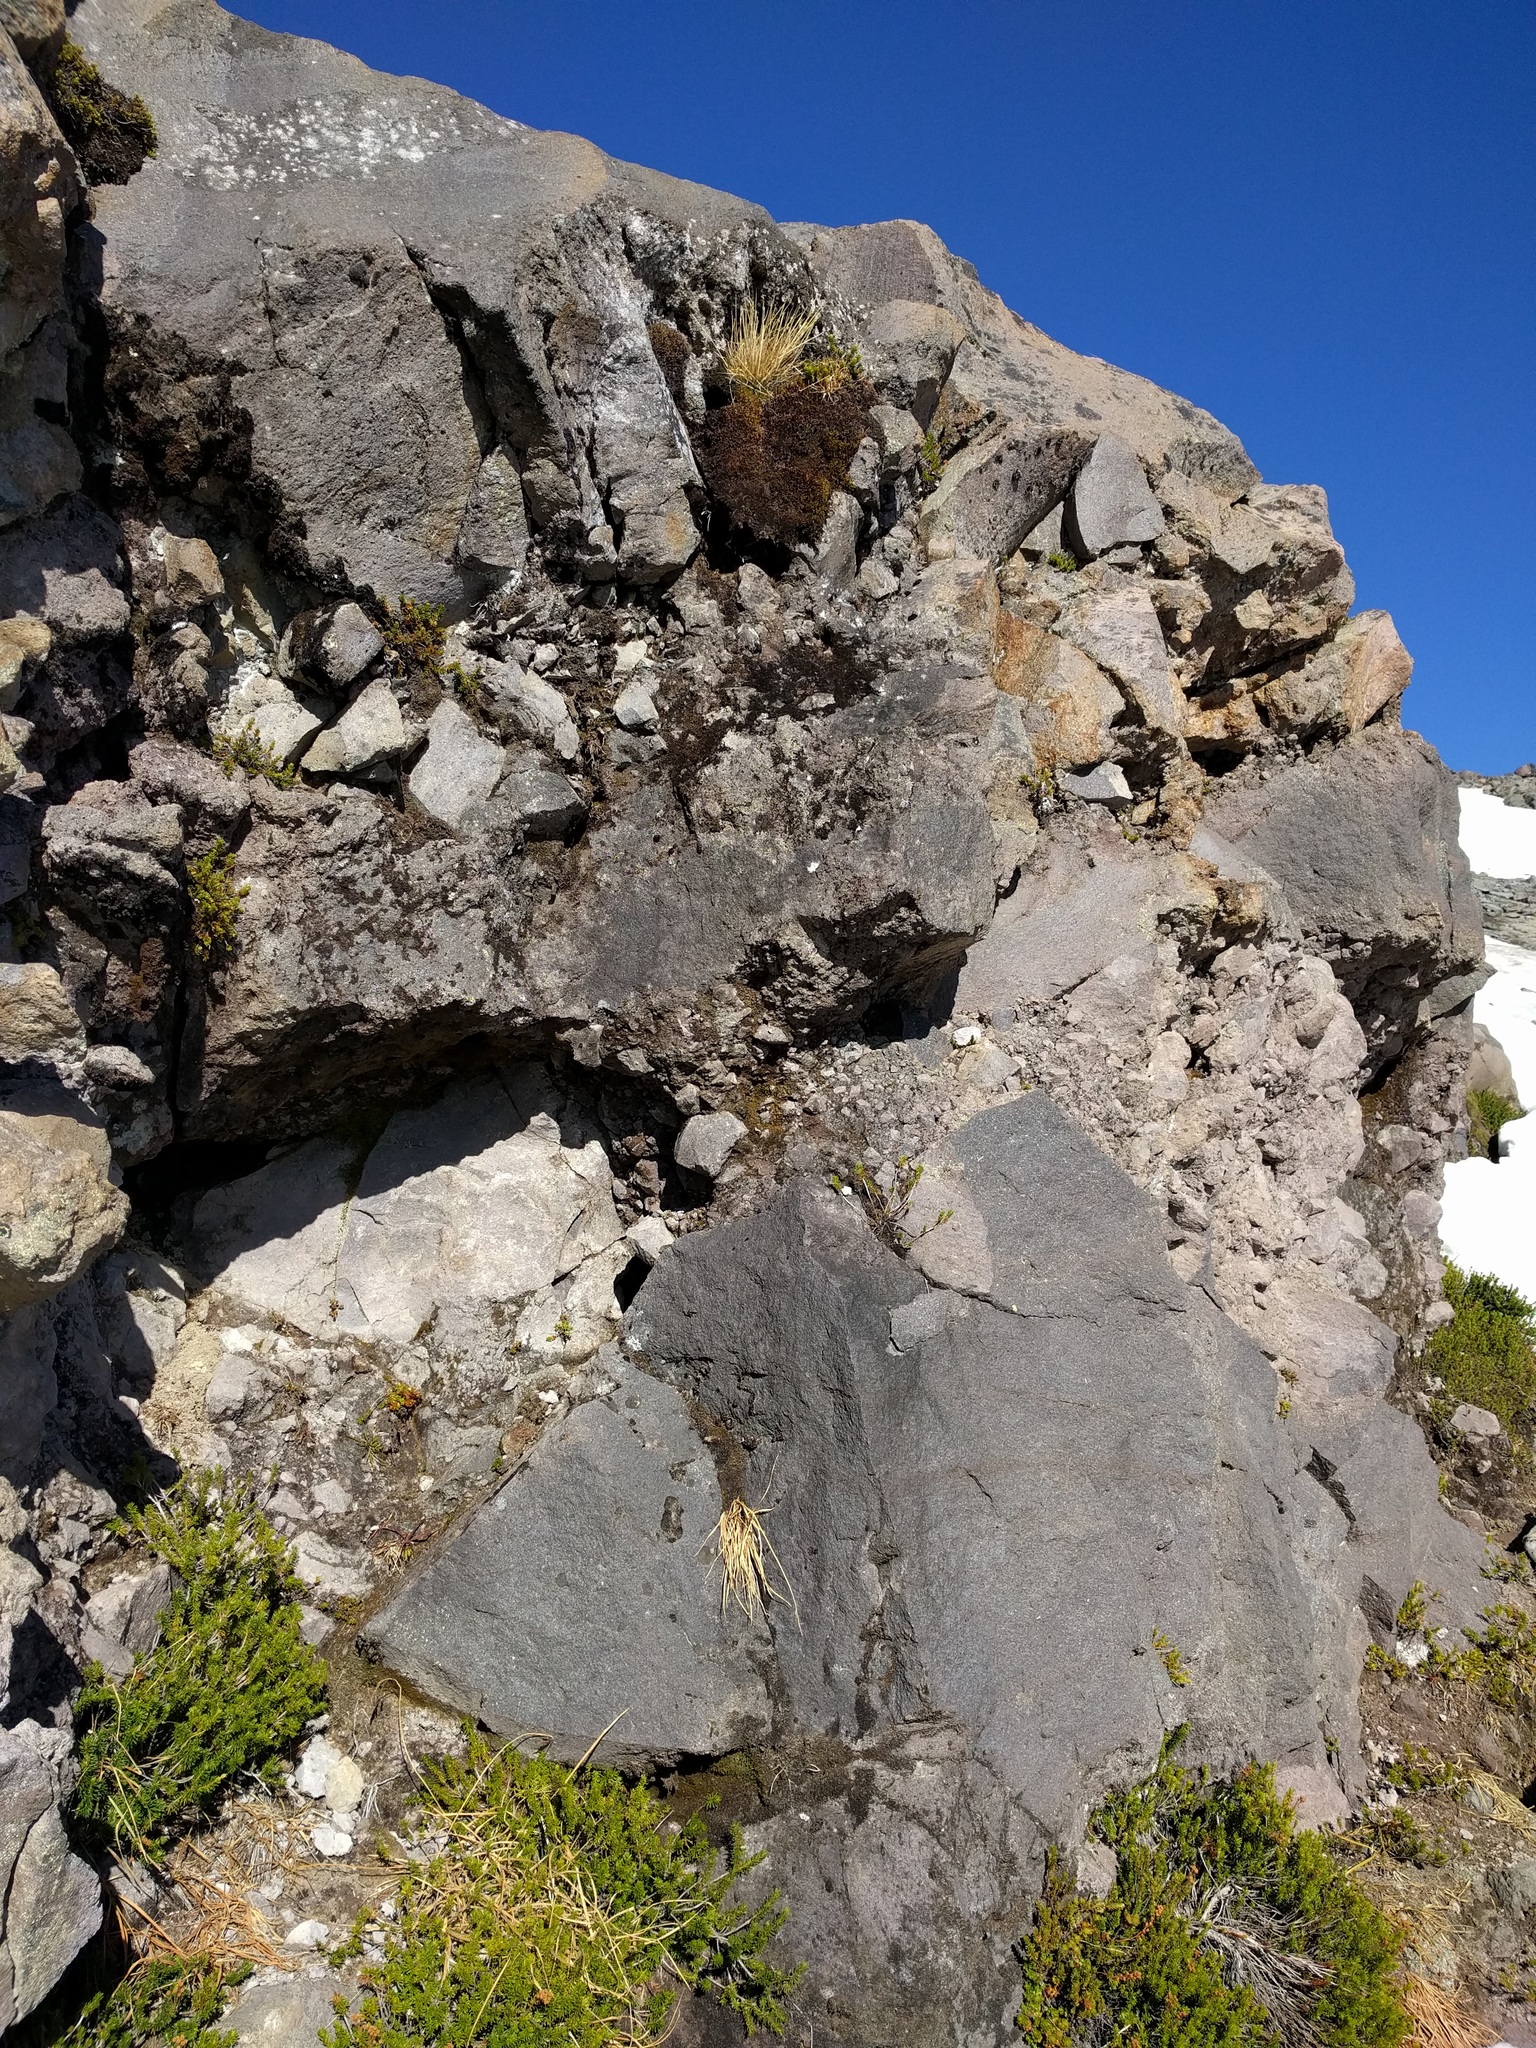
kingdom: Plantae
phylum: Tracheophyta
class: Magnoliopsida
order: Rosales
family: Rosaceae
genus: Luetkea
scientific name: Luetkea pectinata
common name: Partridgefoot
